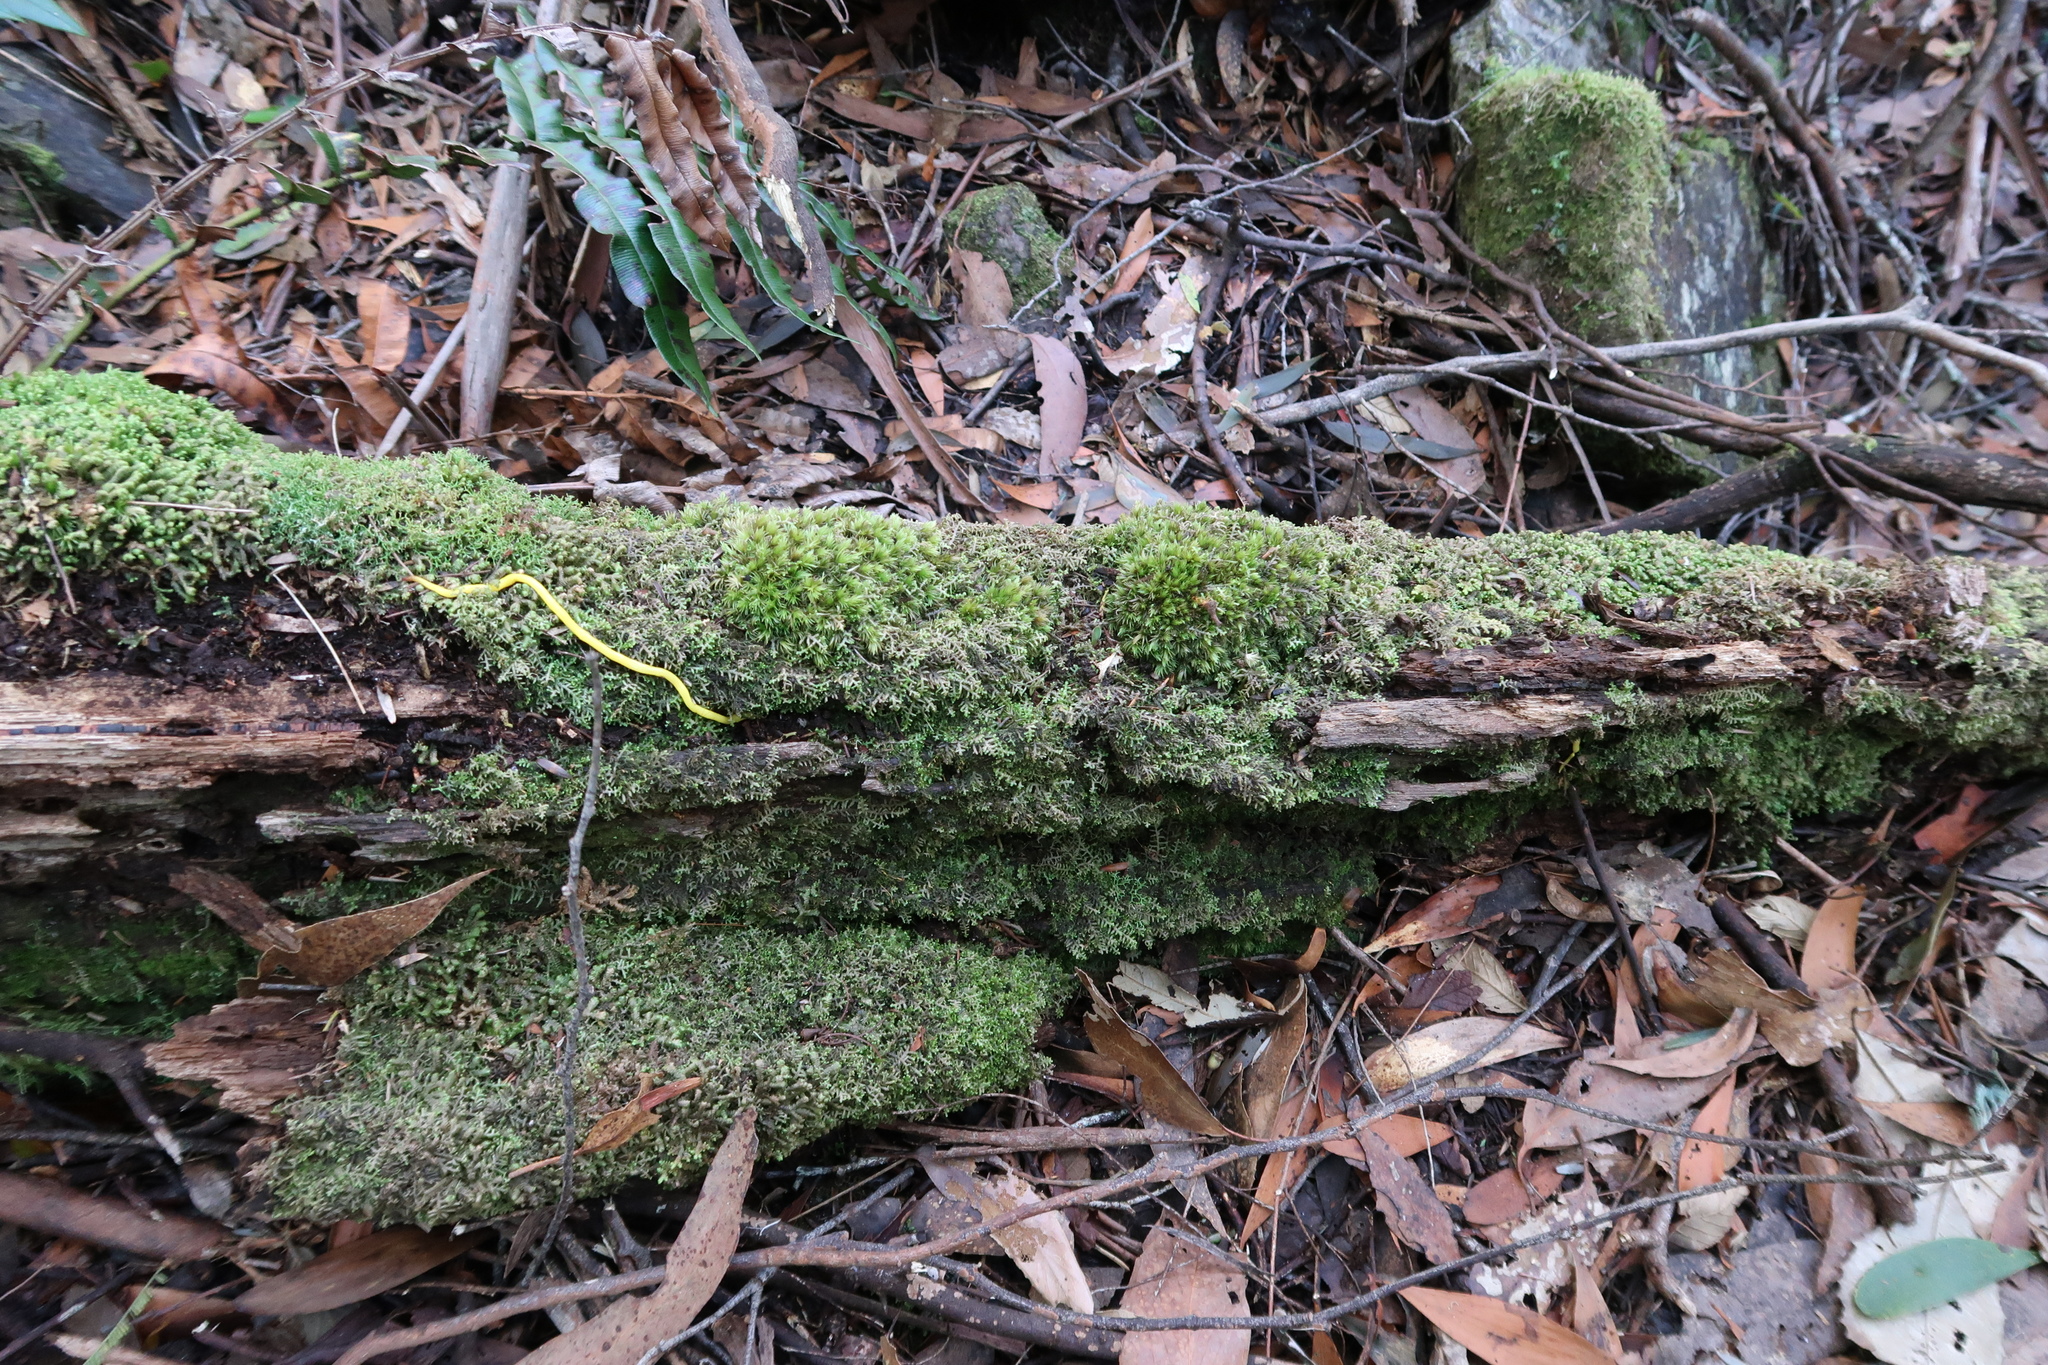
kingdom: Animalia
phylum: Platyhelminthes
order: Tricladida
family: Geoplanidae
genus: Fletchamia
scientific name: Fletchamia sugdeni
